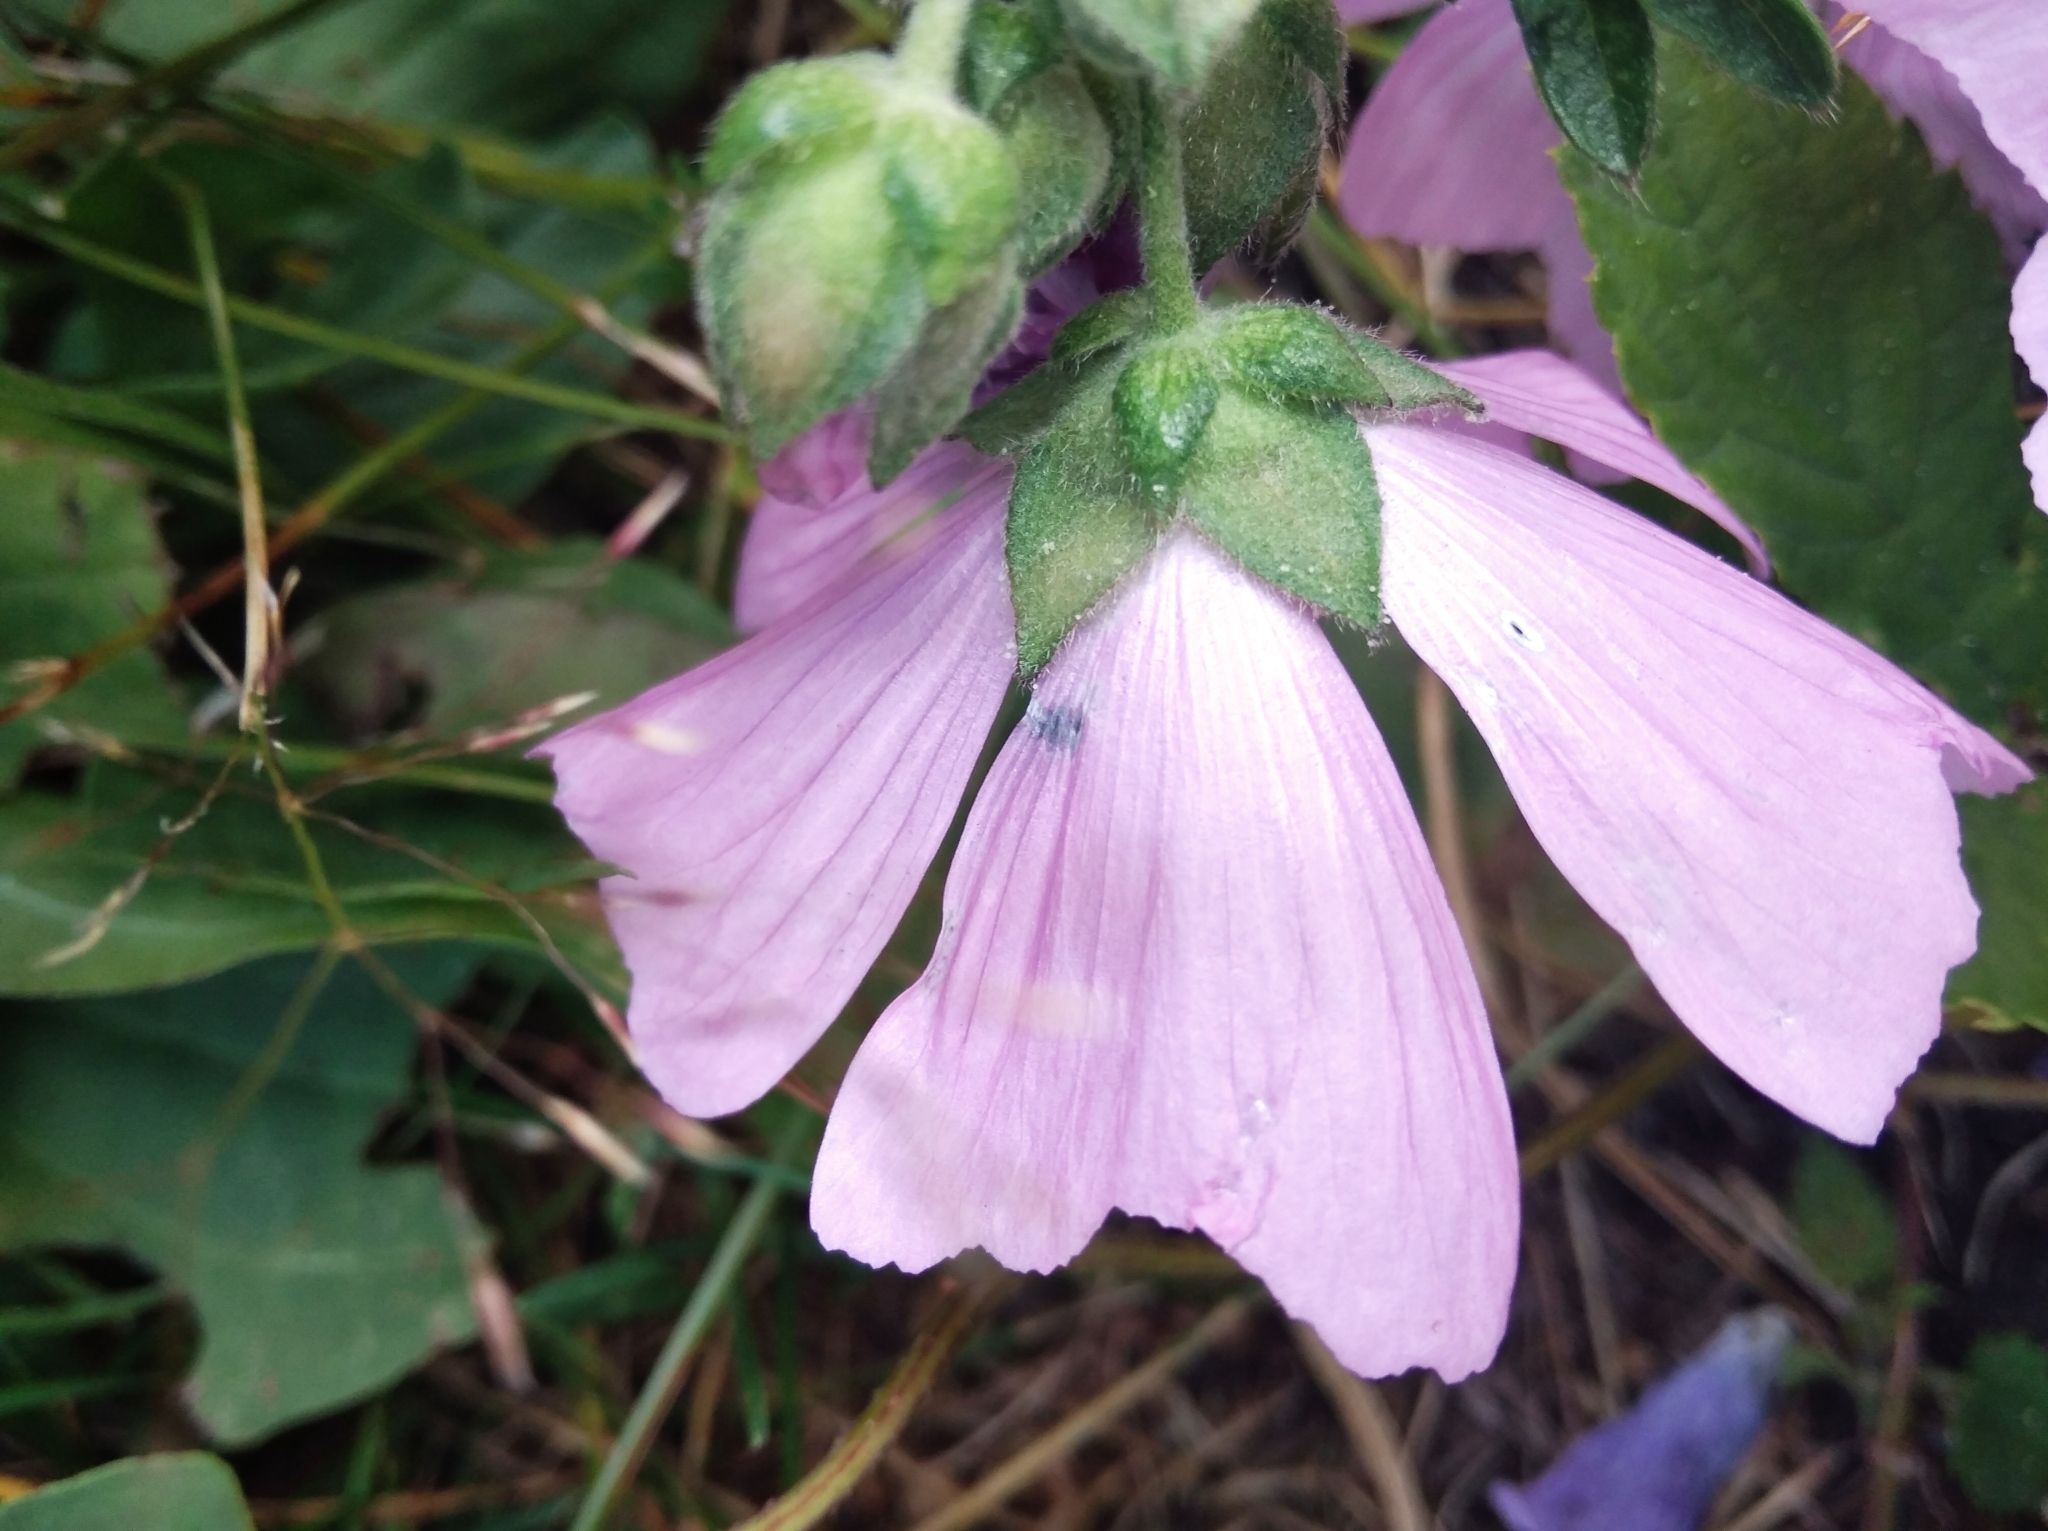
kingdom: Plantae
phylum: Tracheophyta
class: Magnoliopsida
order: Malvales
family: Malvaceae
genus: Malva
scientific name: Malva moschata
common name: Musk mallow
